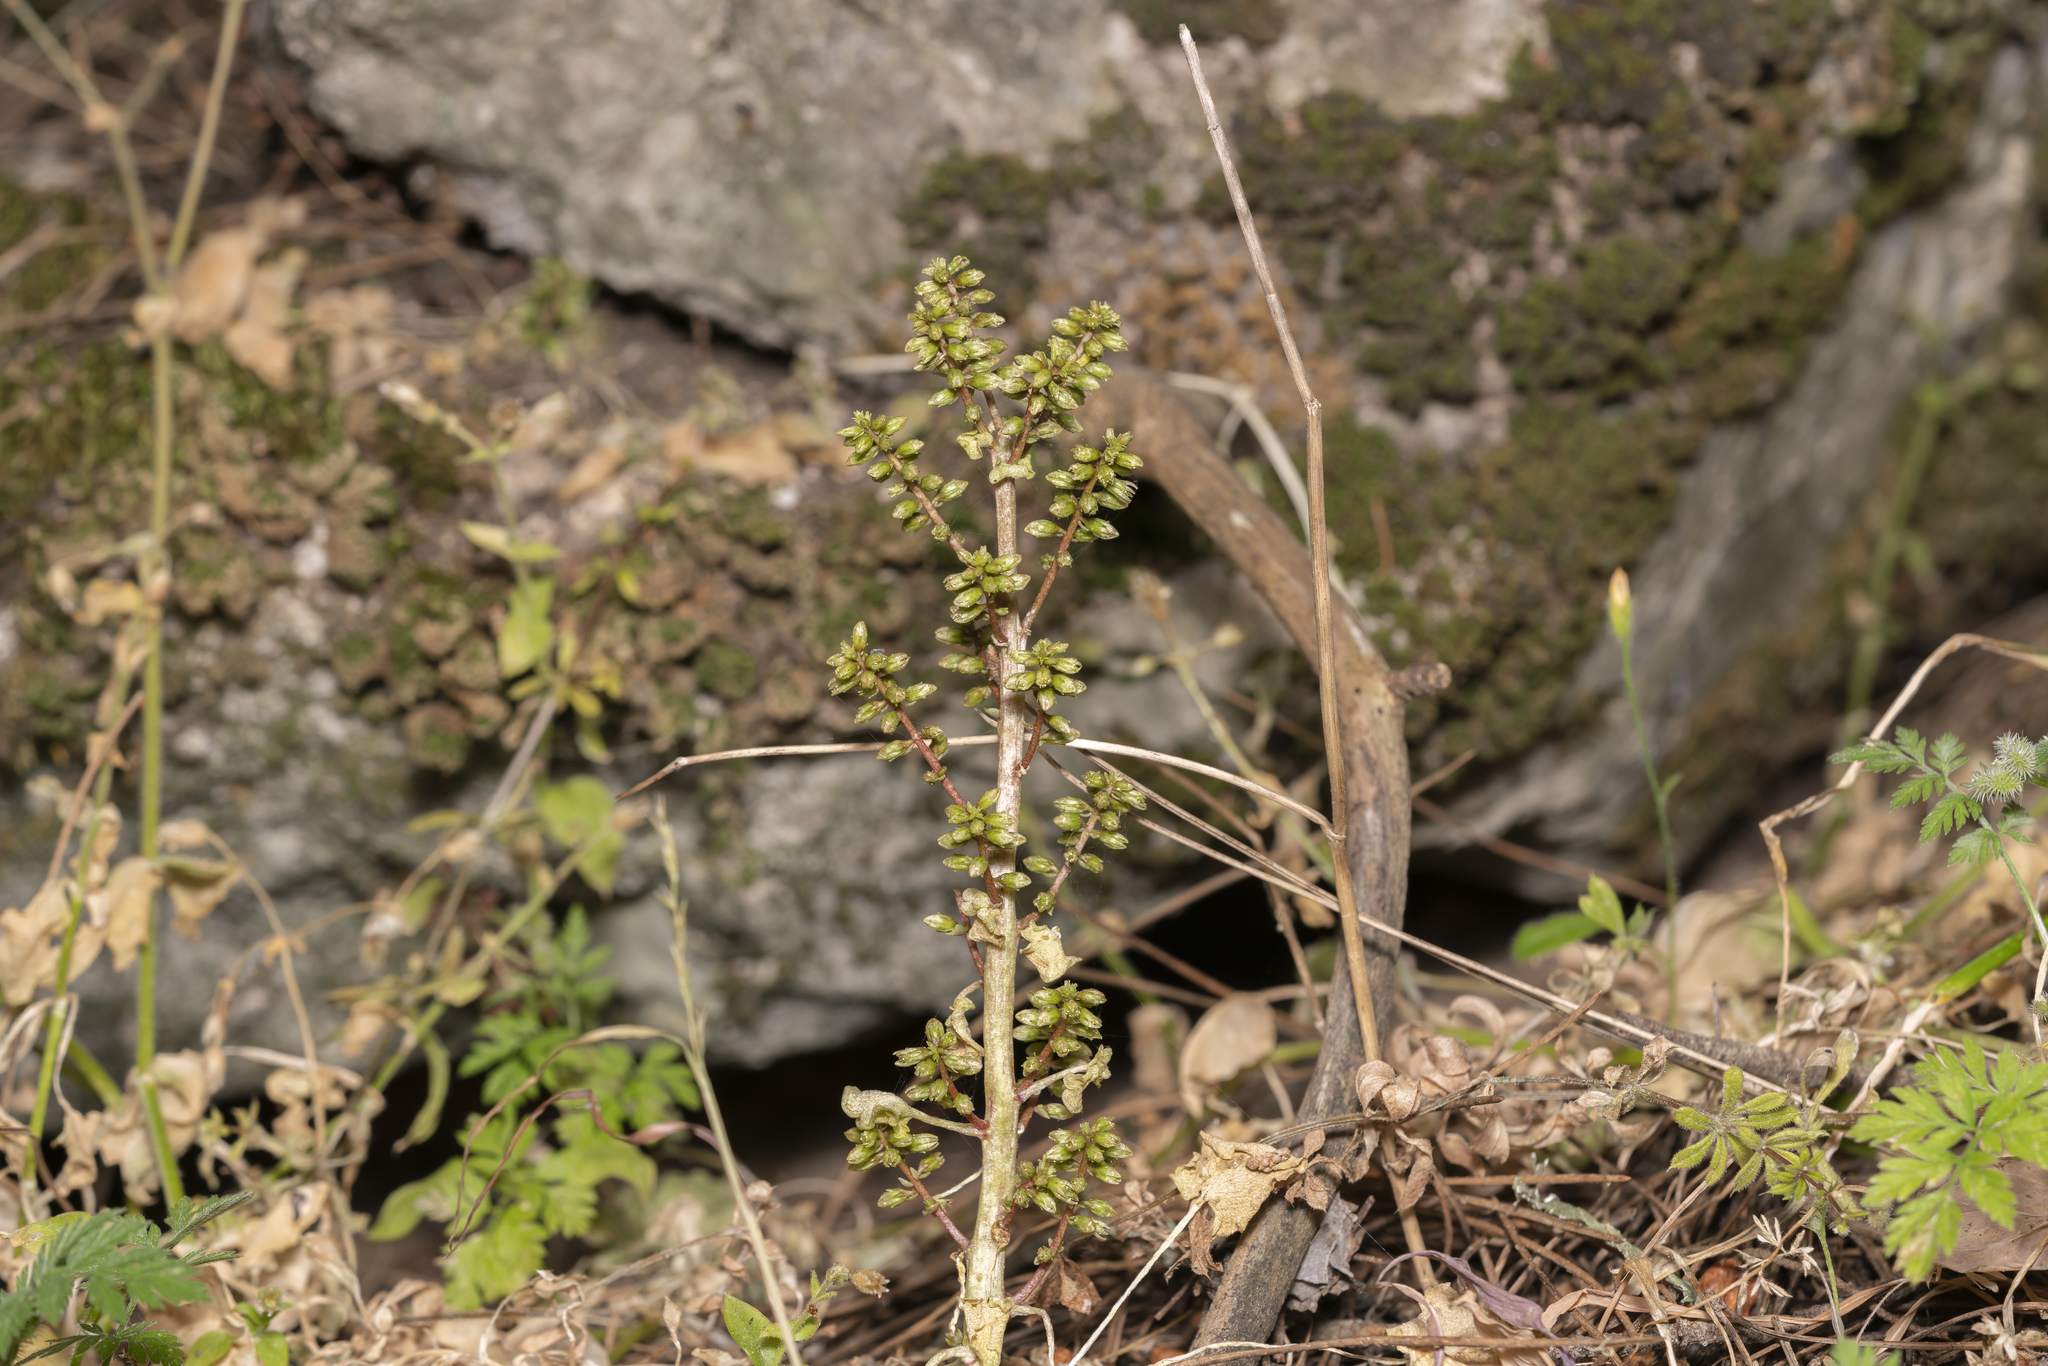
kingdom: Plantae
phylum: Tracheophyta
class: Magnoliopsida
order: Saxifragales
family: Crassulaceae
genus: Umbilicus
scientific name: Umbilicus parviflorus
